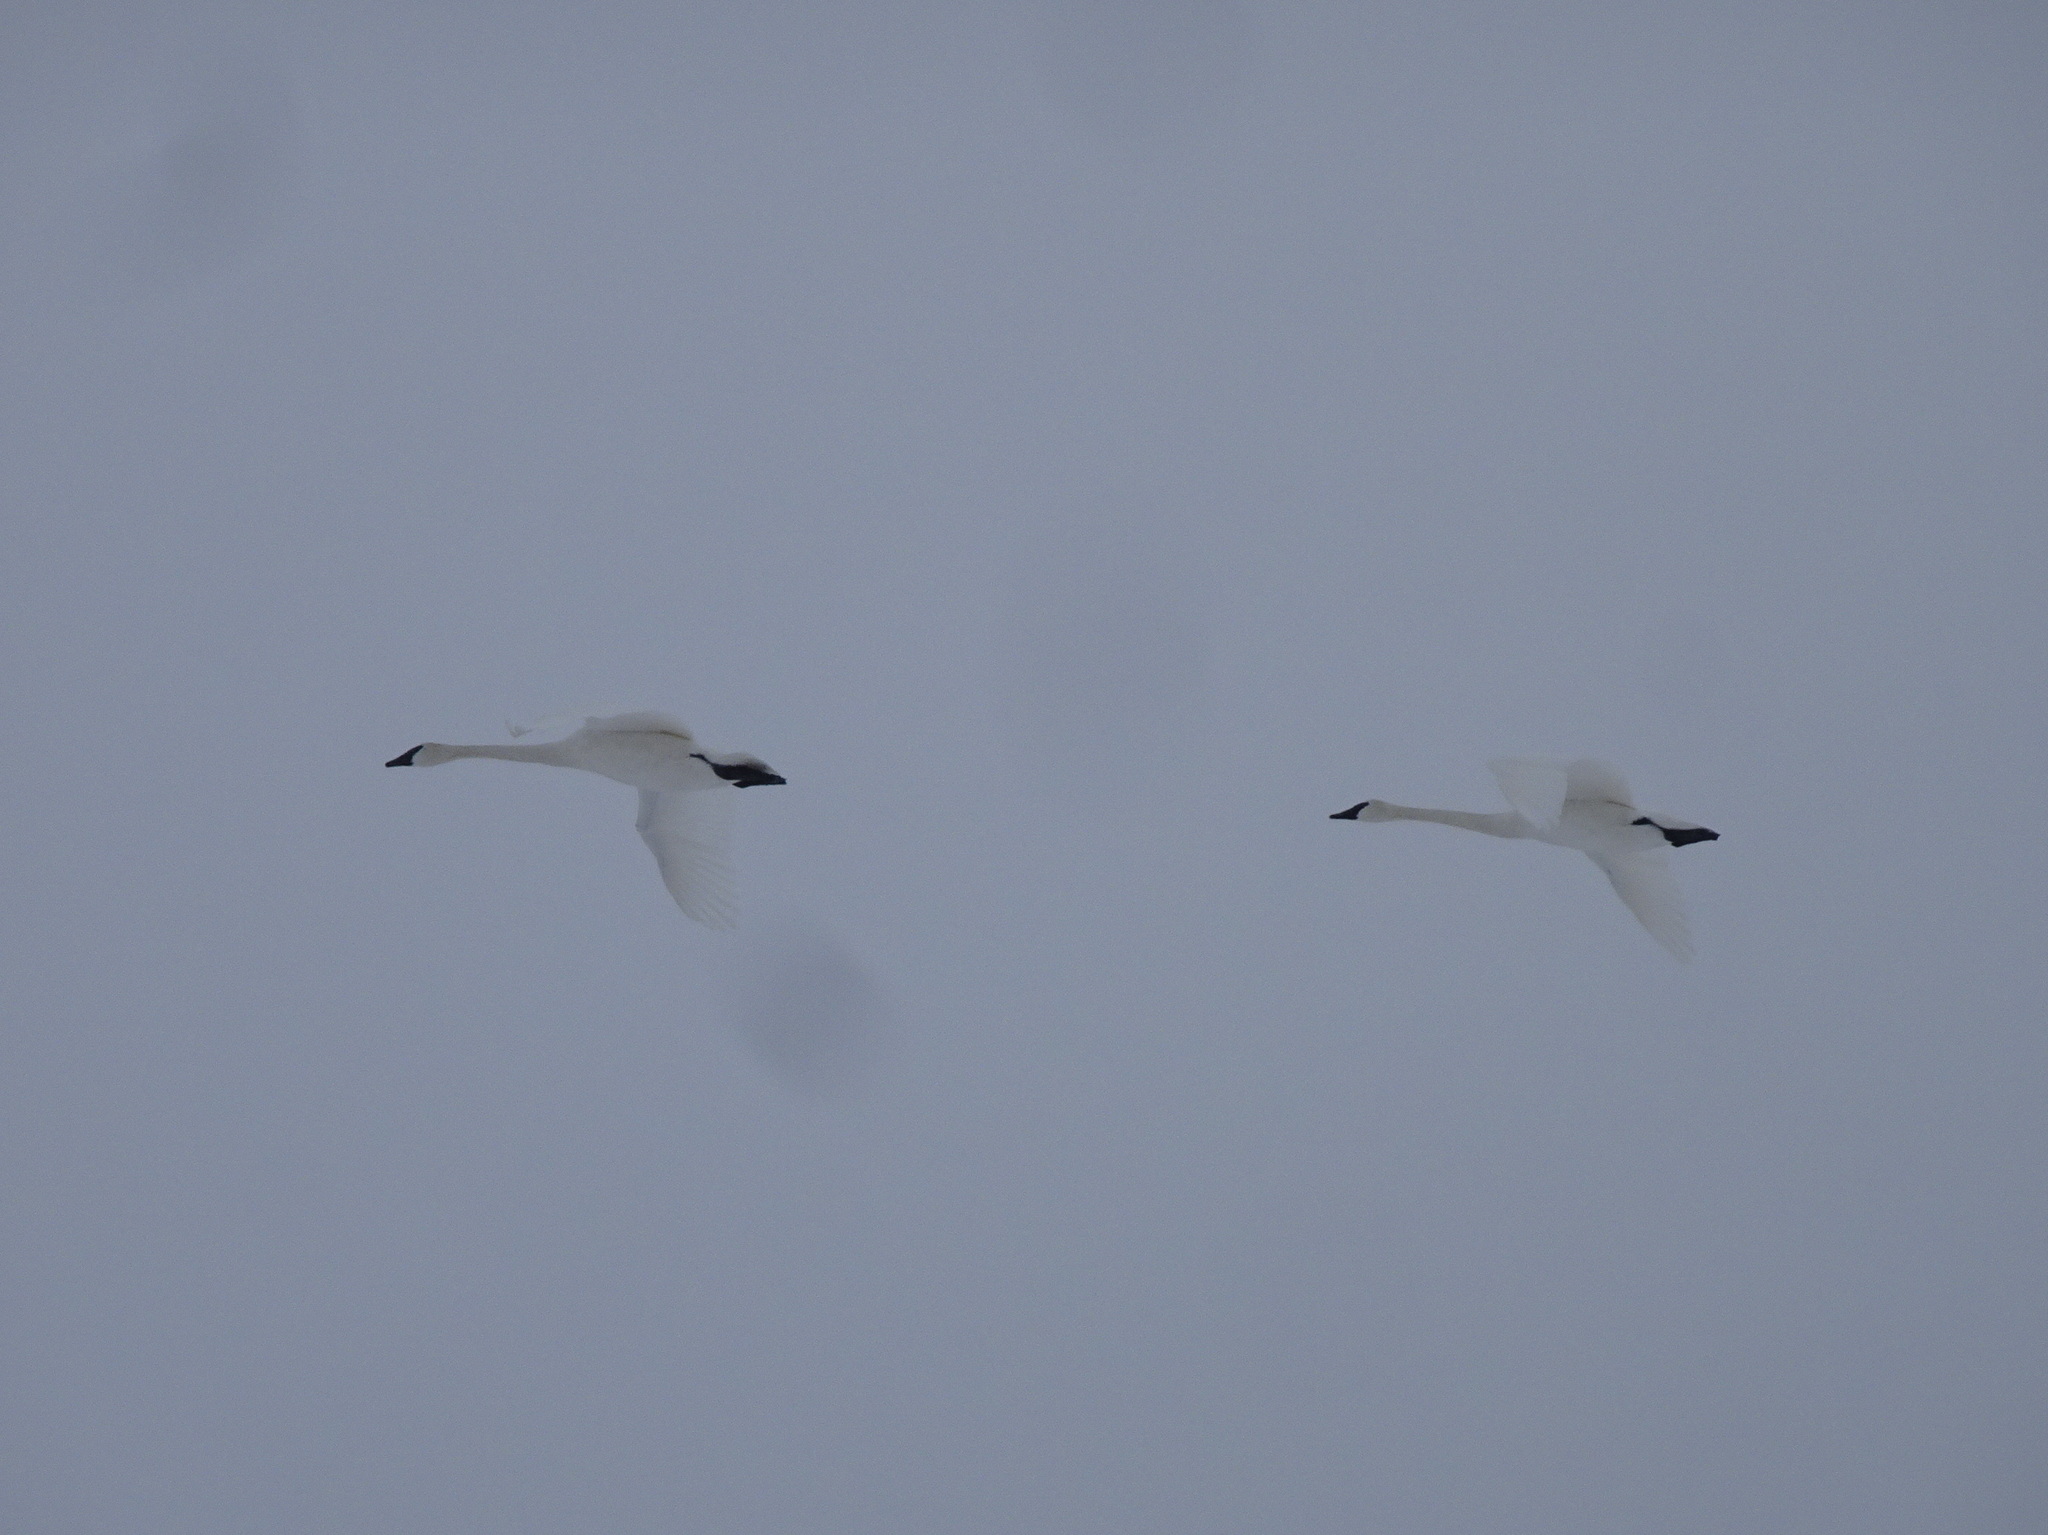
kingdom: Animalia
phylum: Chordata
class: Aves
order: Anseriformes
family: Anatidae
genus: Cygnus
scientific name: Cygnus buccinator
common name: Trumpeter swan
